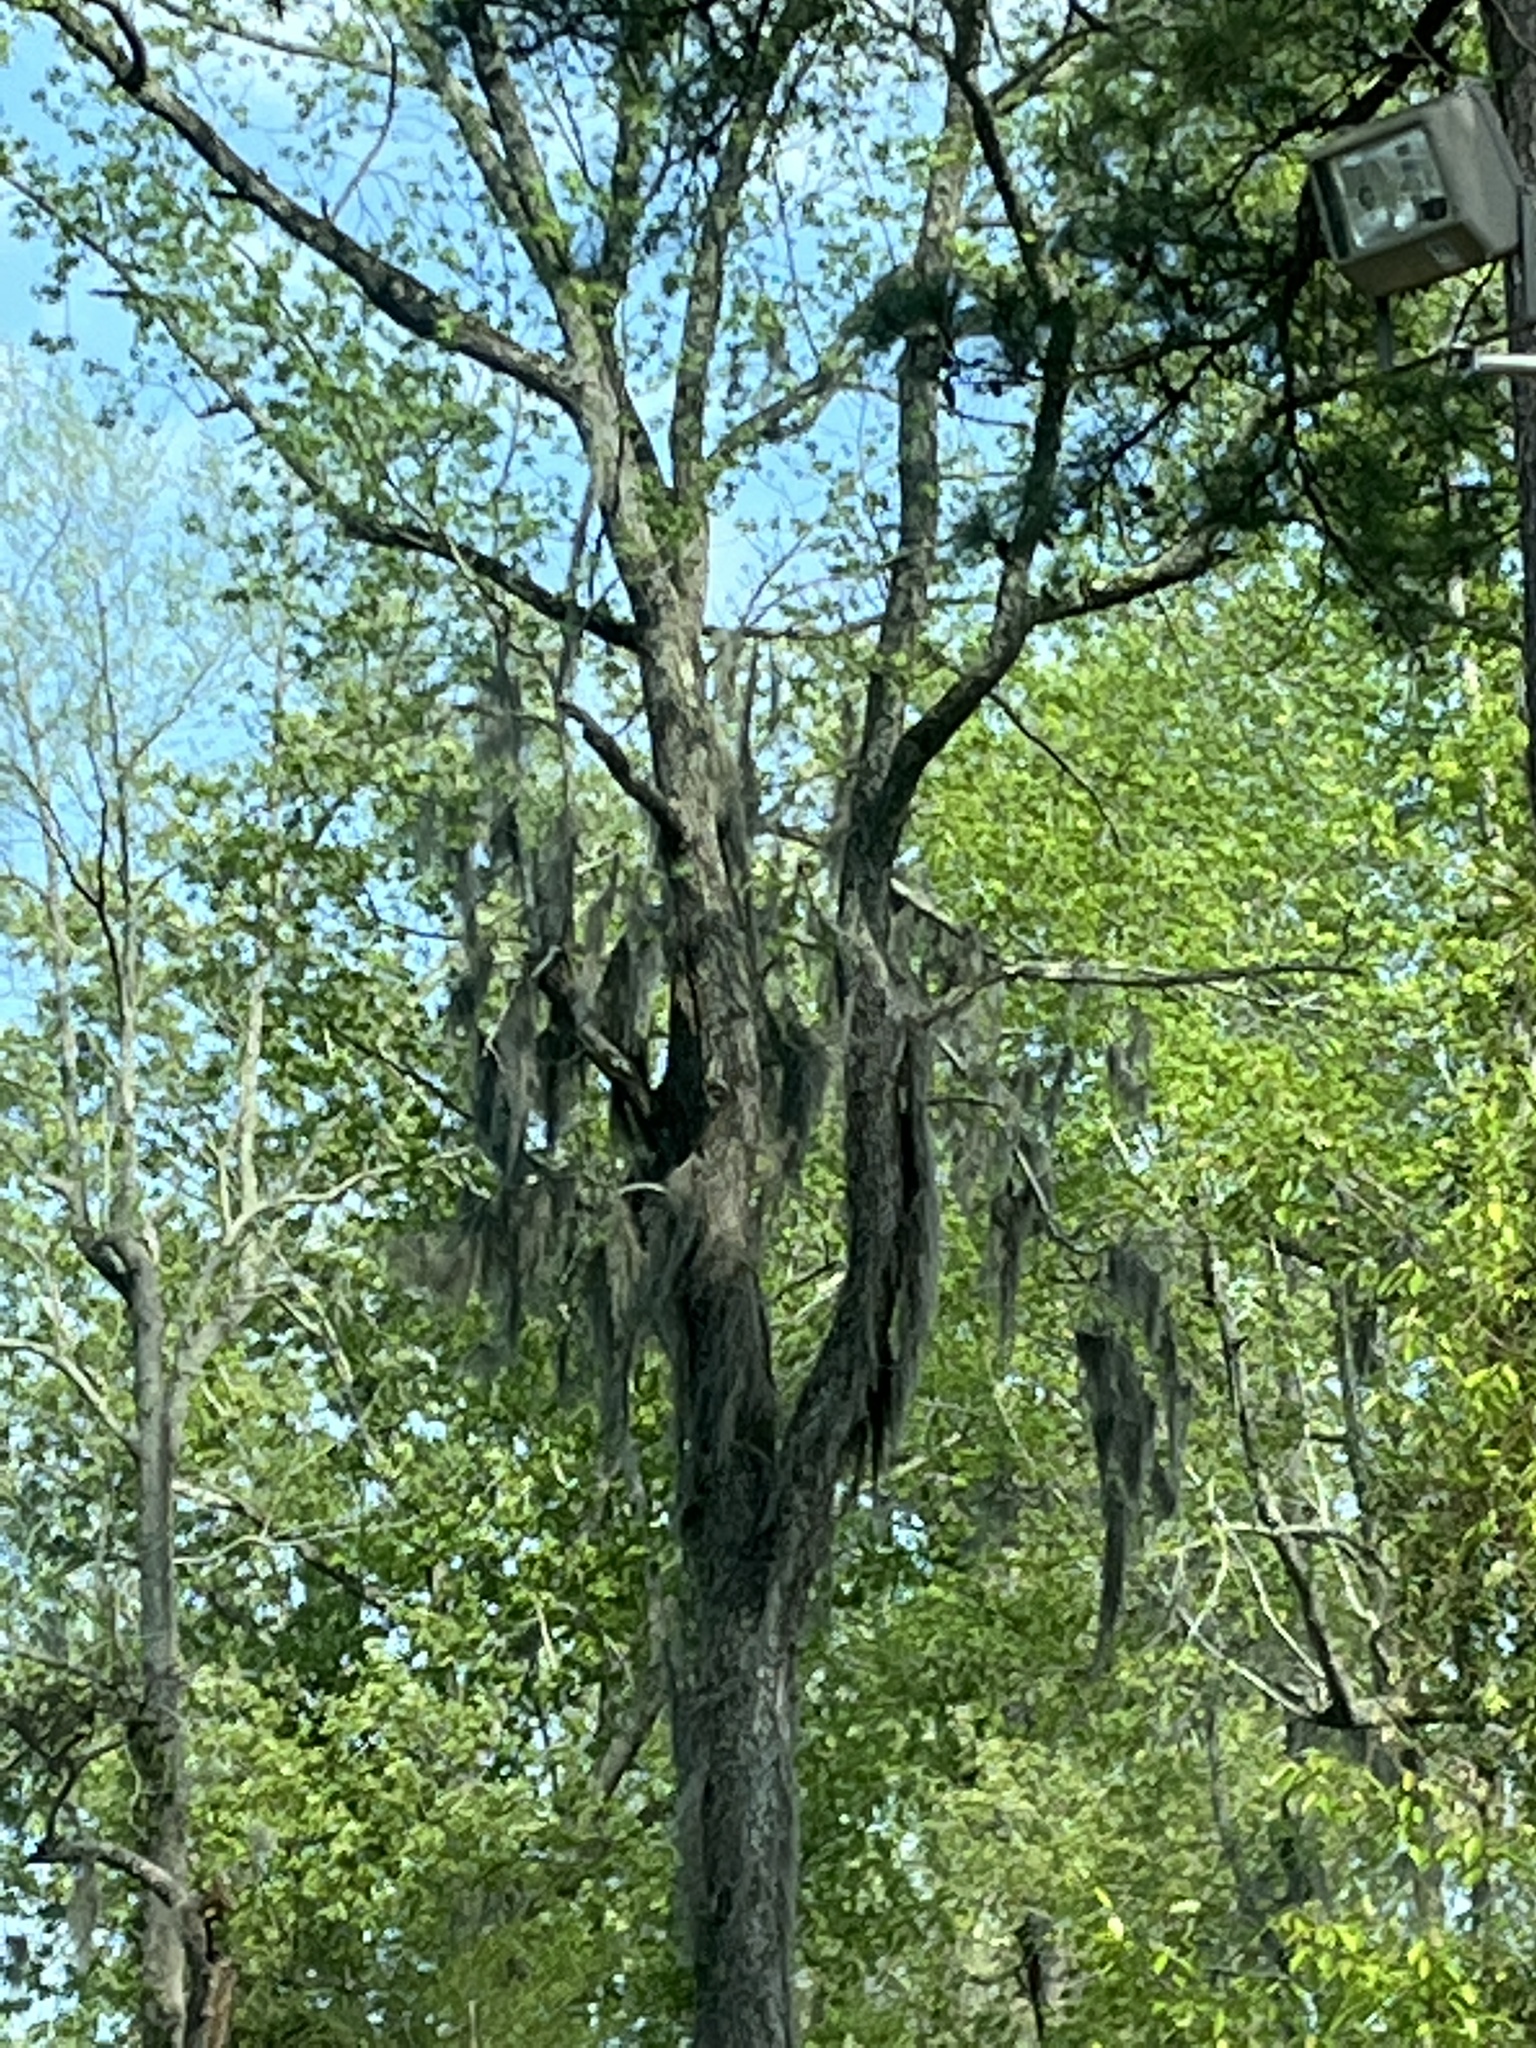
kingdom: Plantae
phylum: Tracheophyta
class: Liliopsida
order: Poales
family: Bromeliaceae
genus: Tillandsia
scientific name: Tillandsia usneoides
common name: Spanish moss
